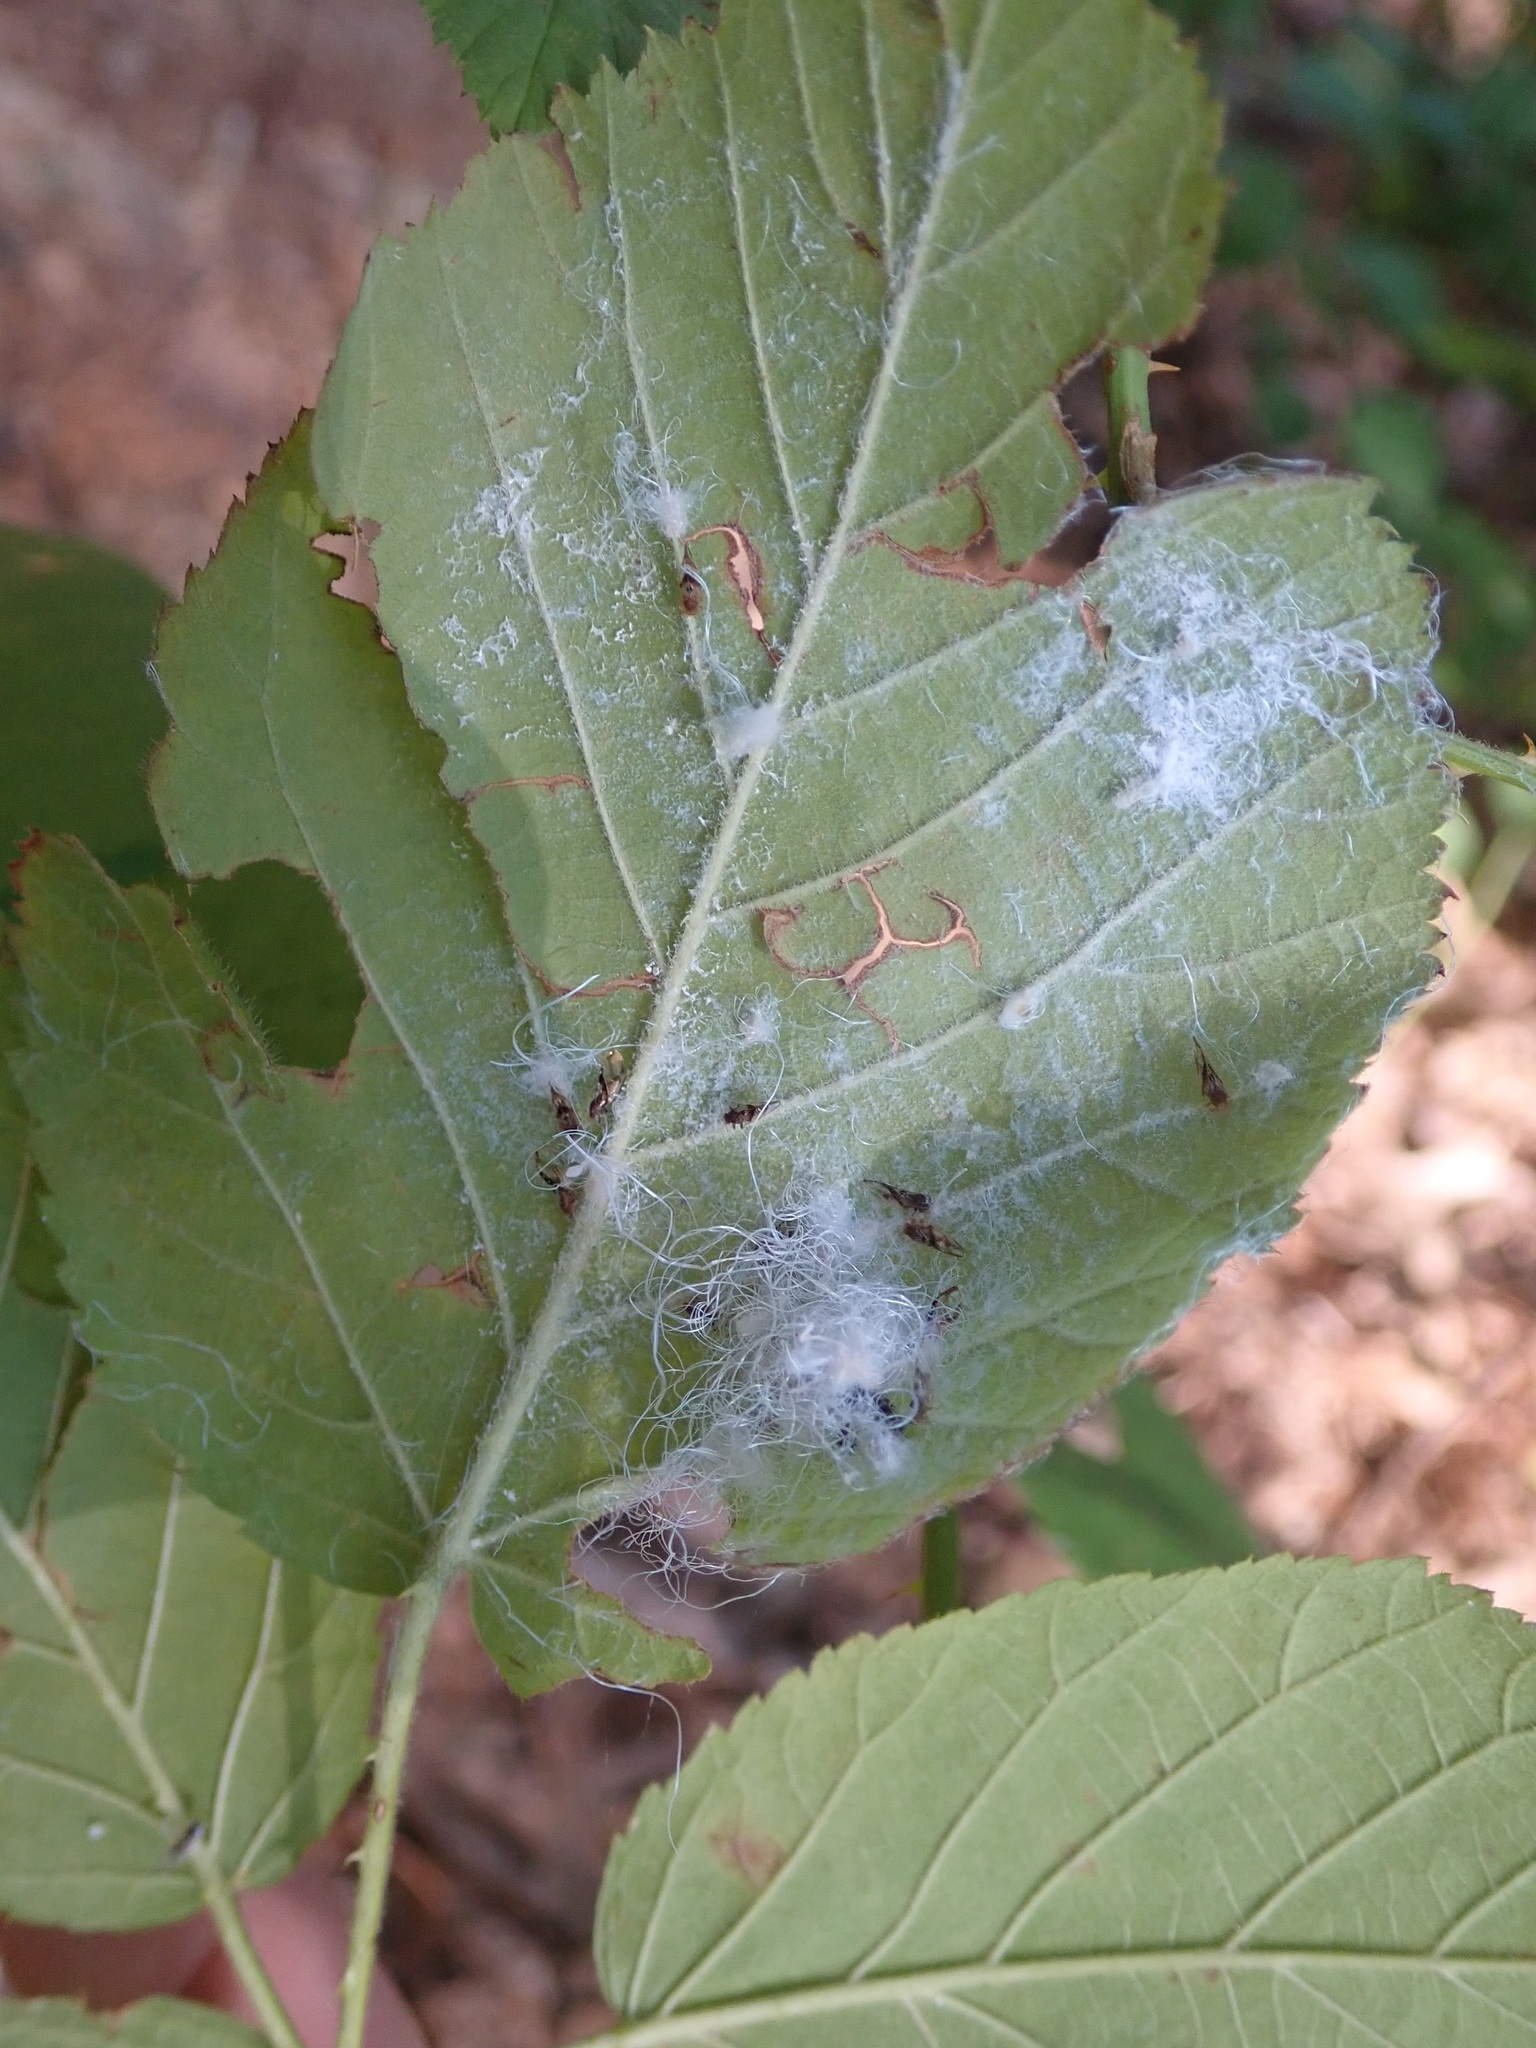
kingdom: Animalia
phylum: Arthropoda
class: Insecta
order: Hemiptera
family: Triozidae
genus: Phylloplecta
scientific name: Phylloplecta tripunctata
